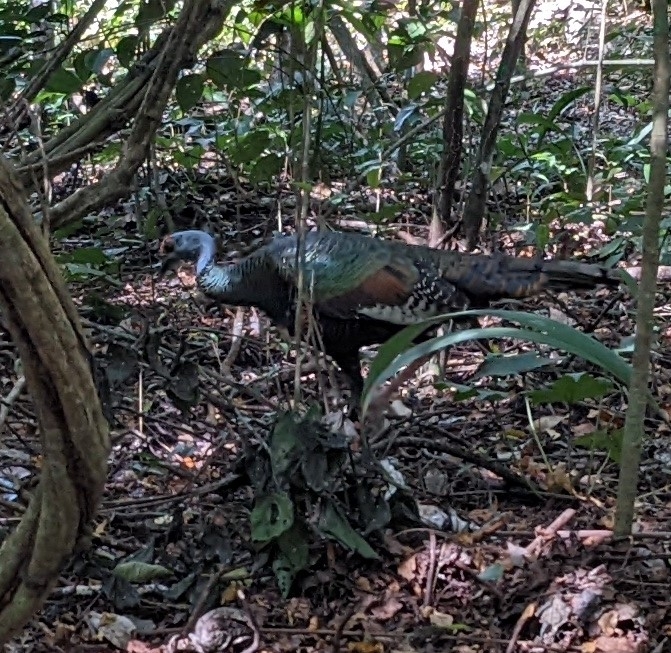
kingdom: Animalia
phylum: Chordata
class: Aves
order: Galliformes
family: Phasianidae
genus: Meleagris
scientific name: Meleagris ocellata
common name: Ocellated turkey
